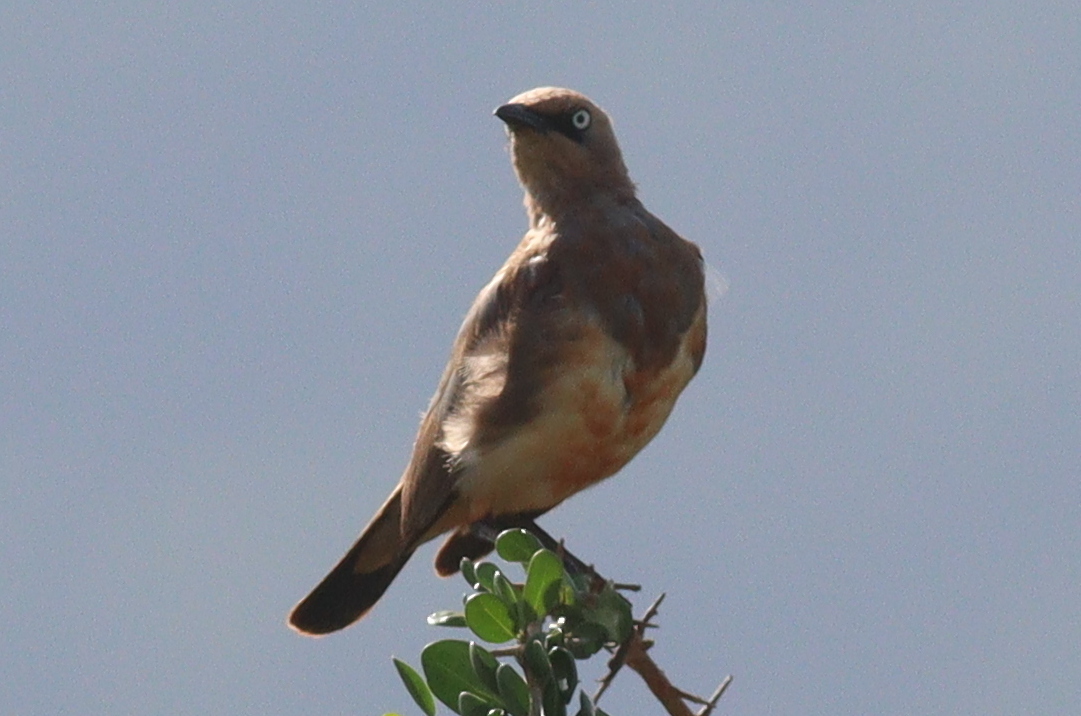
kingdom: Animalia
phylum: Chordata
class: Aves
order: Passeriformes
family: Sturnidae
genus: Lamprotornis
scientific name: Lamprotornis fischeri
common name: Fischer's starling
